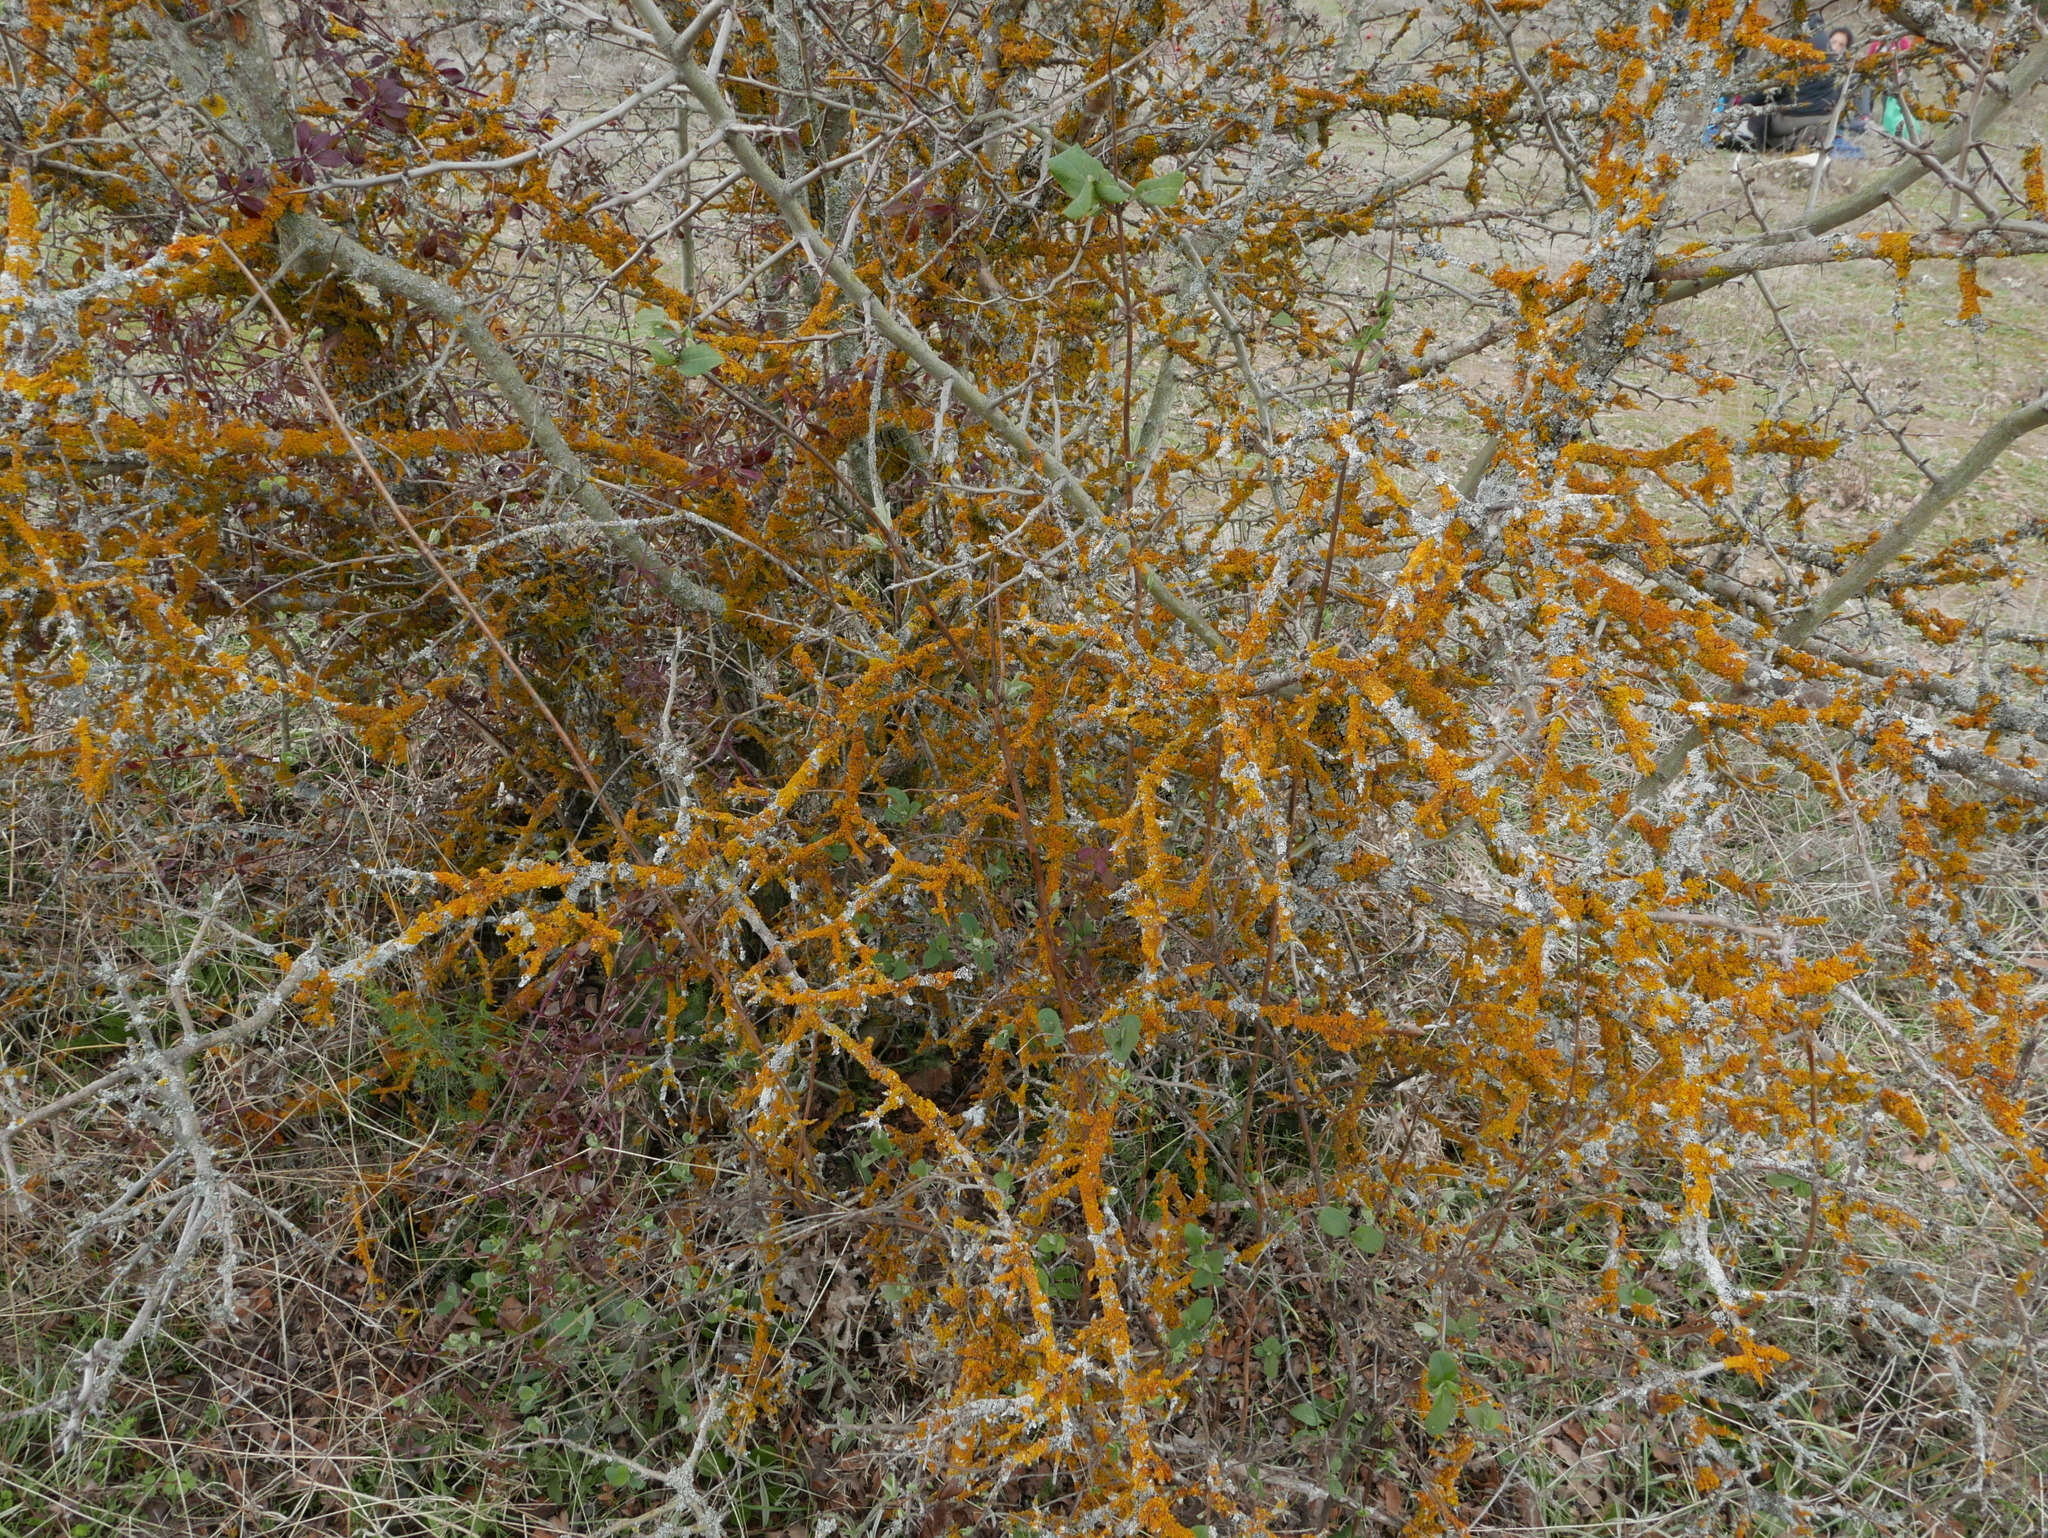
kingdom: Fungi
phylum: Ascomycota
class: Lecanoromycetes
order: Teloschistales
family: Teloschistaceae
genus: Xanthoria
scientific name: Xanthoria parietina
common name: Common orange lichen
